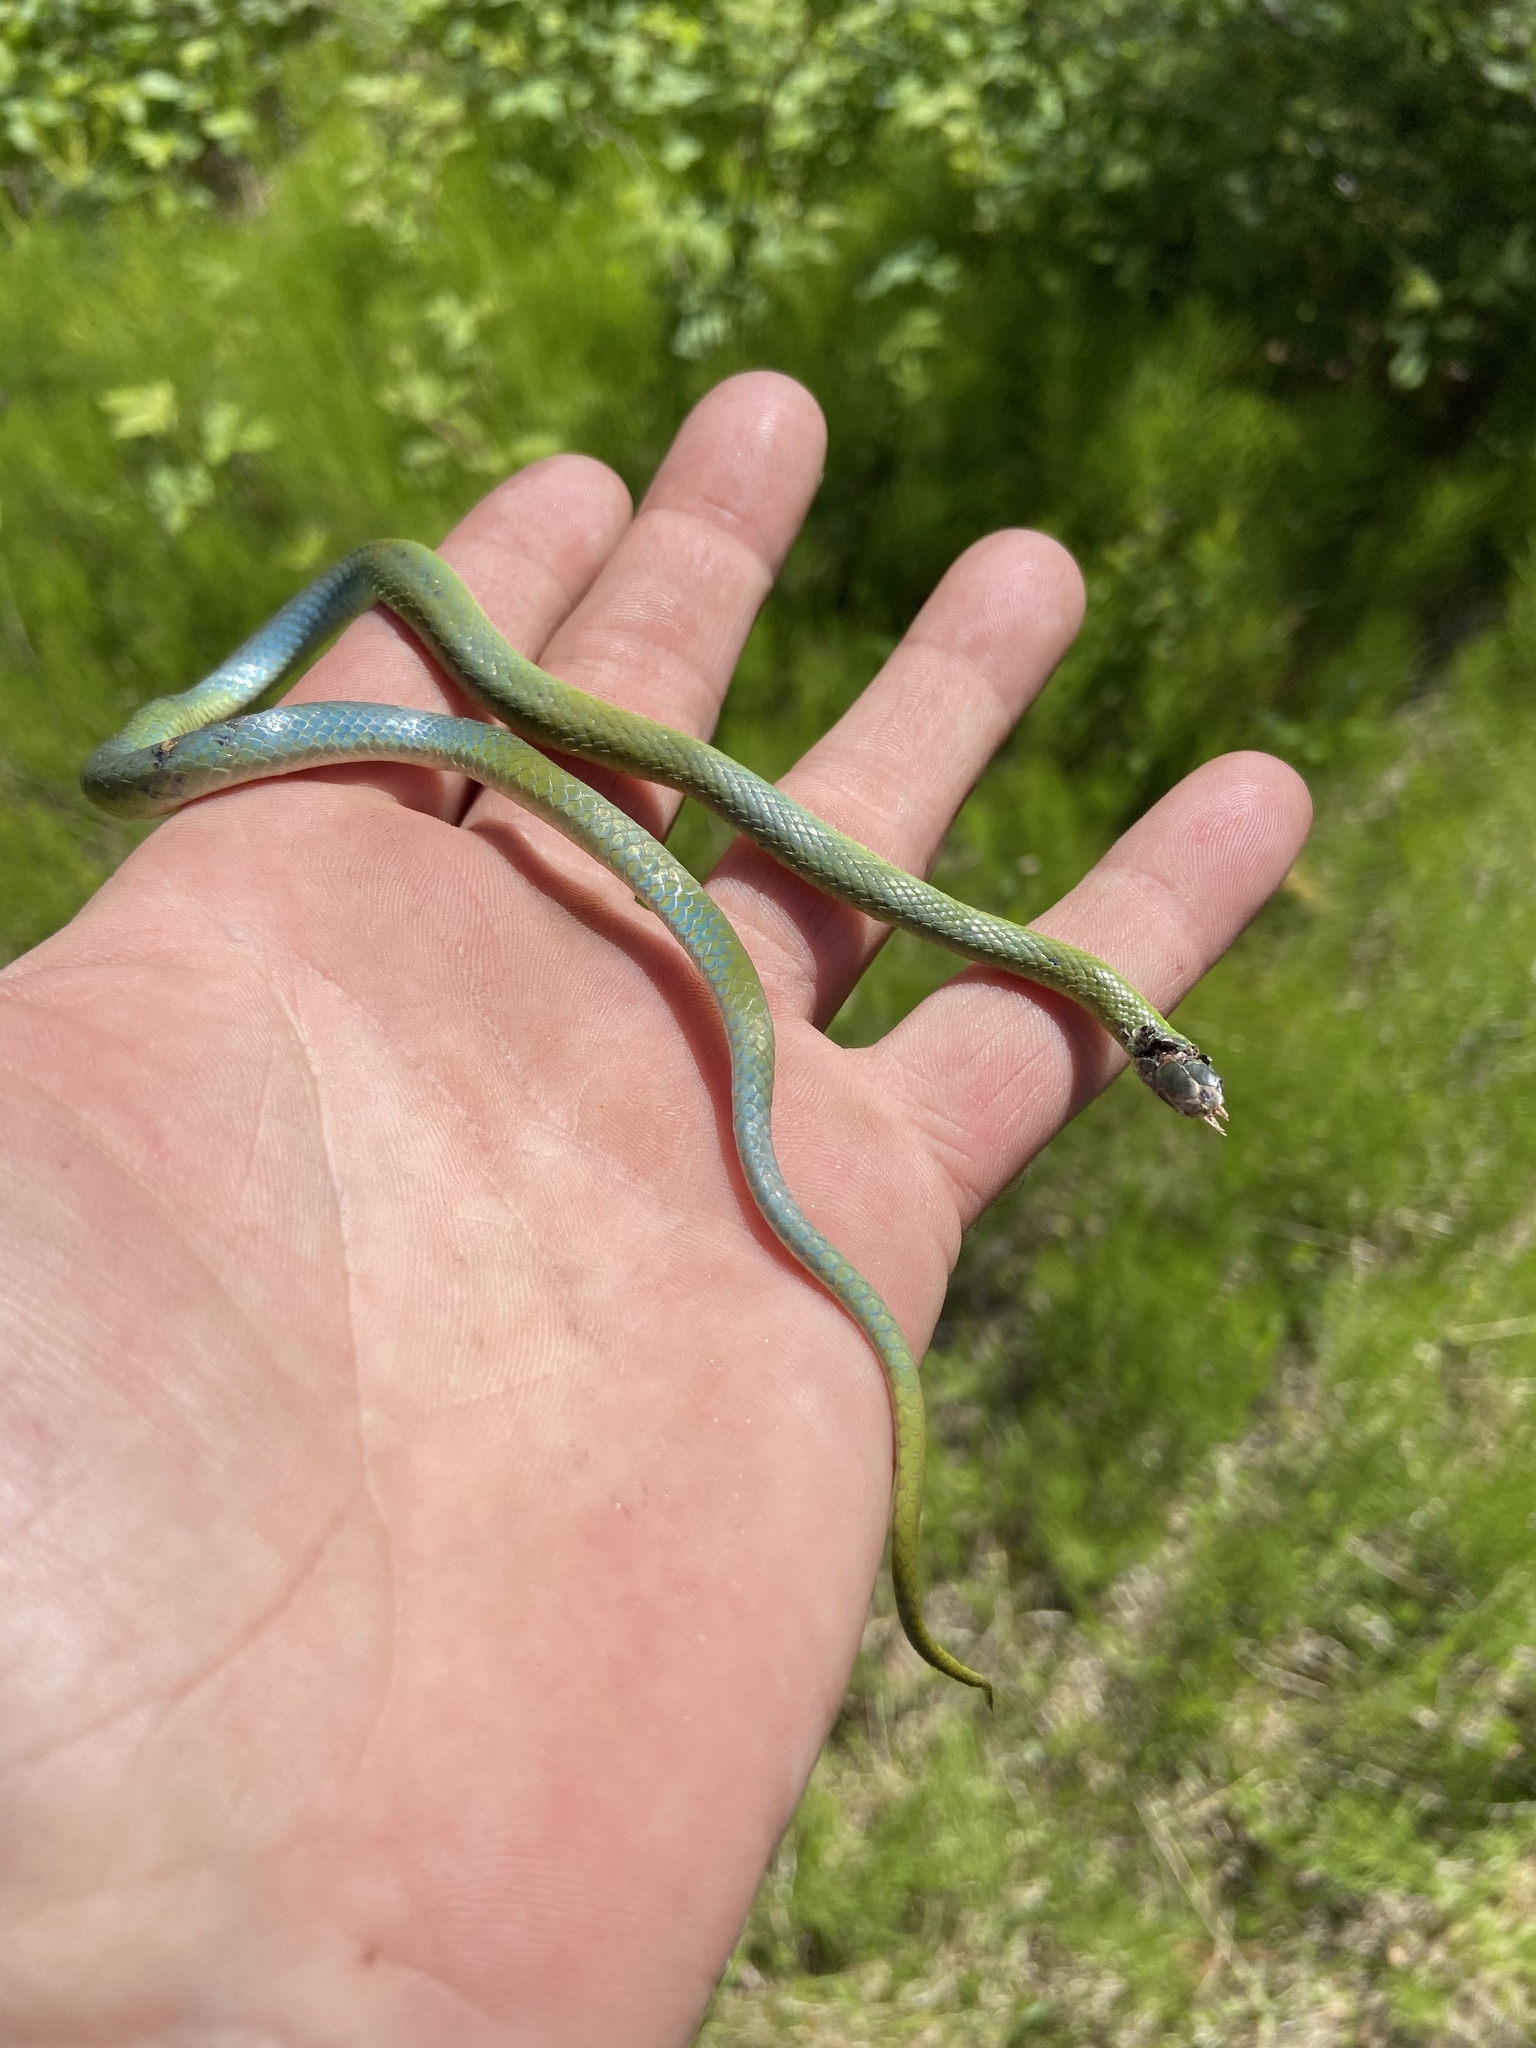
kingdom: Animalia
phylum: Chordata
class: Squamata
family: Colubridae
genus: Opheodrys
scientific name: Opheodrys vernalis
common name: Smooth green snake
